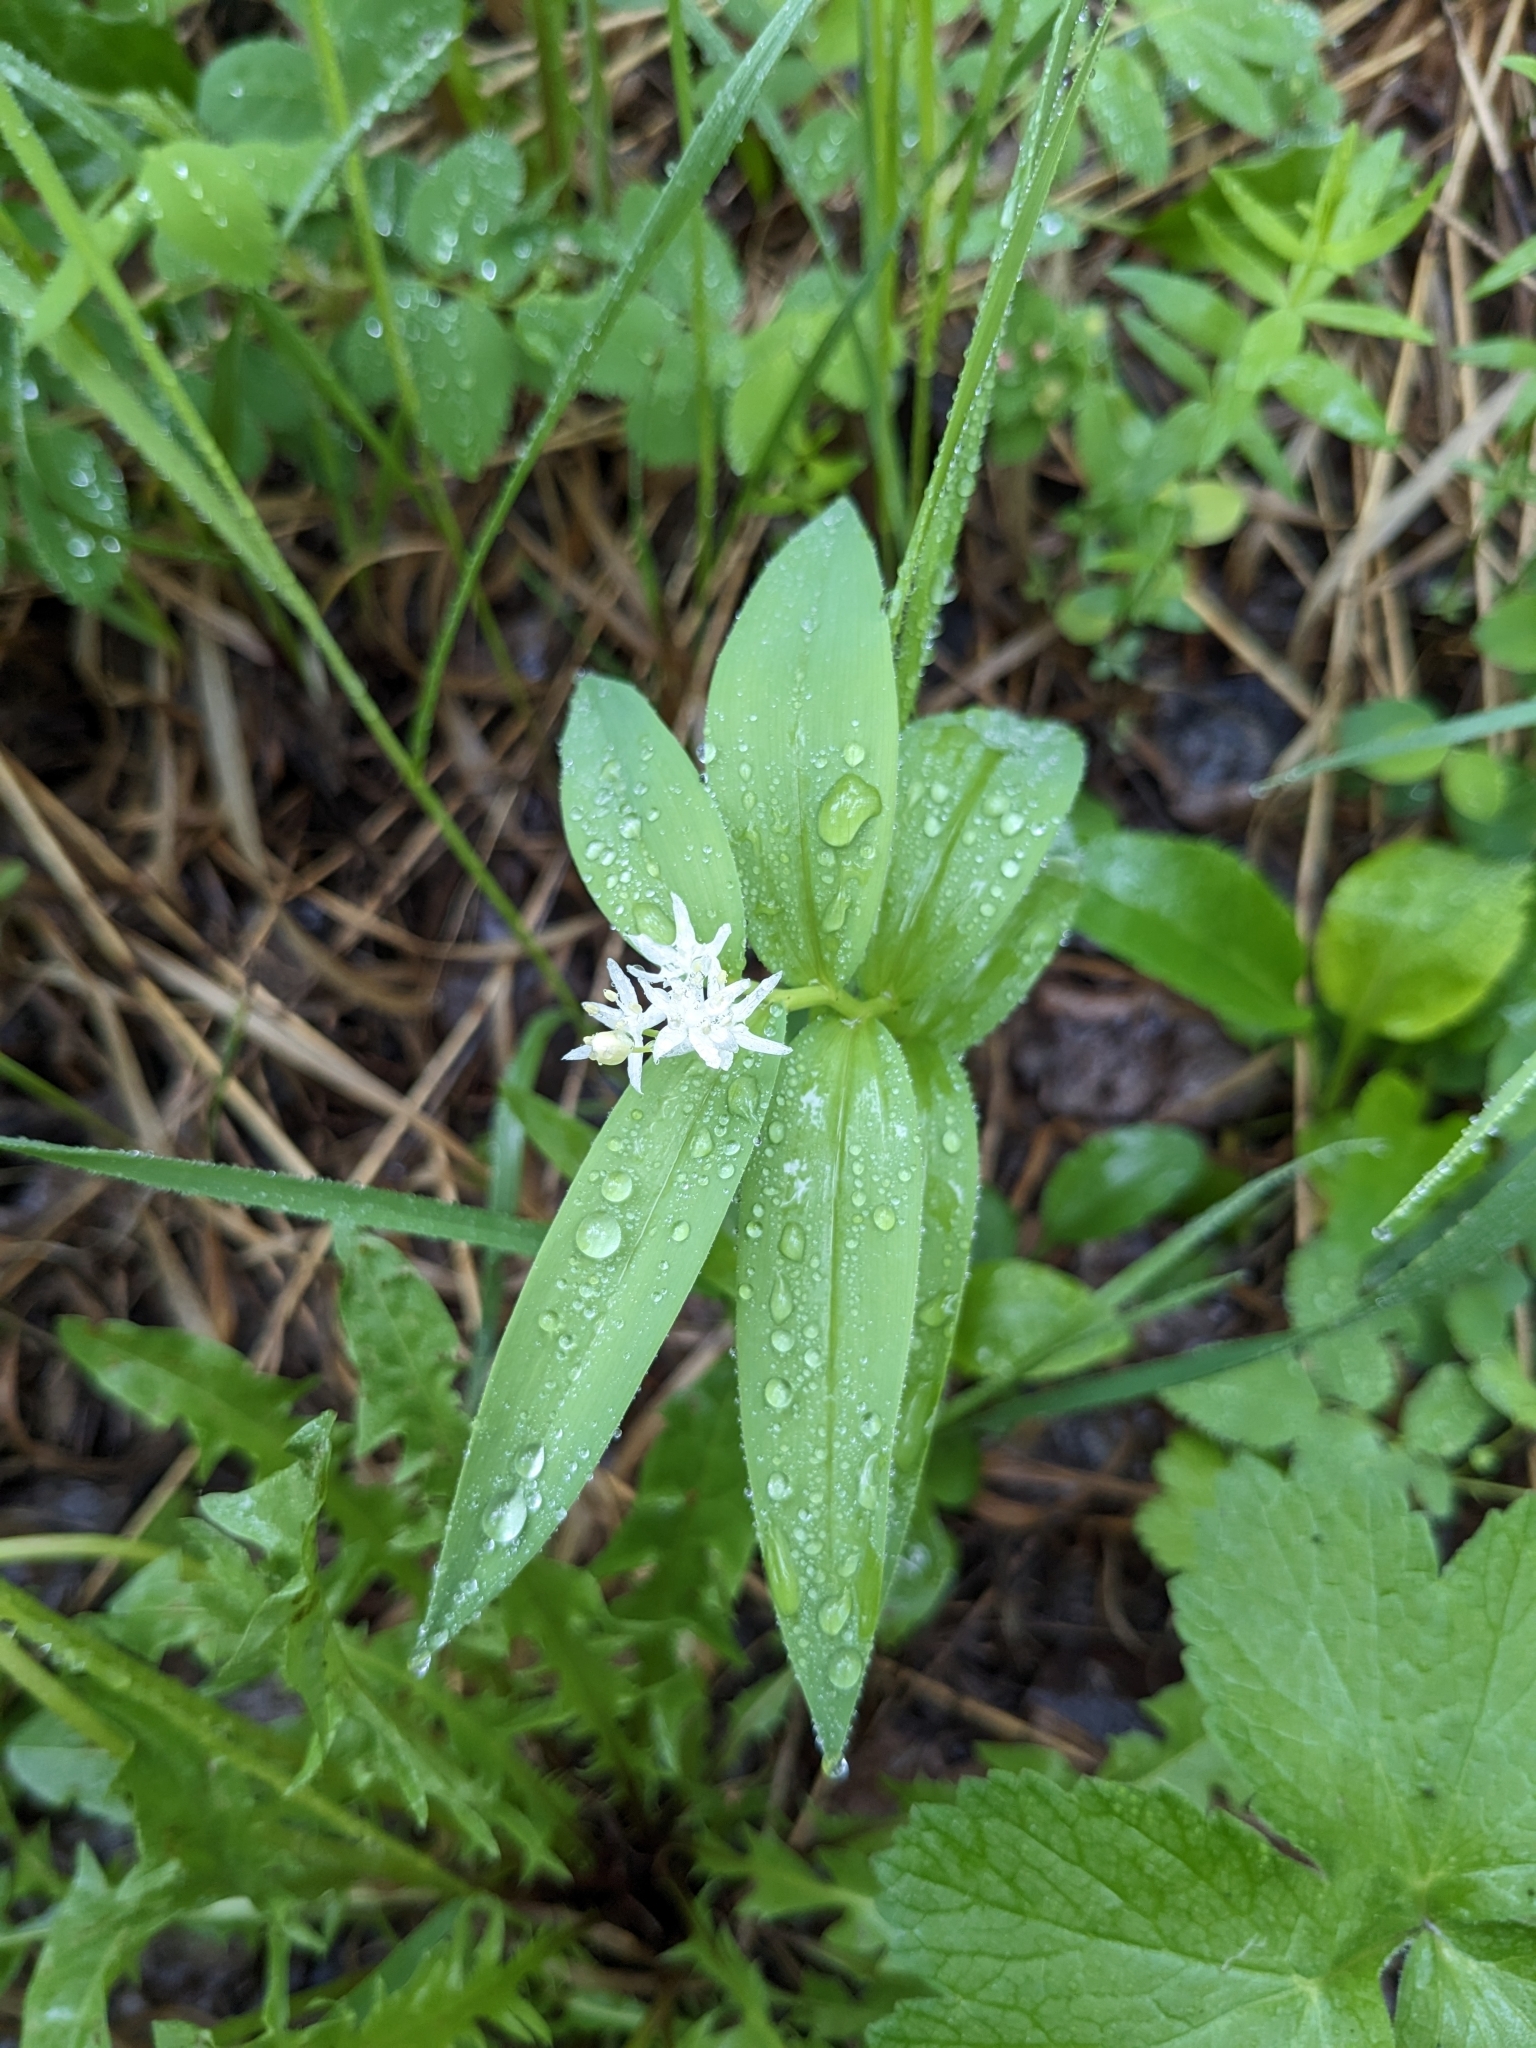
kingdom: Plantae
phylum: Tracheophyta
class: Liliopsida
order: Asparagales
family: Asparagaceae
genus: Maianthemum
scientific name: Maianthemum stellatum
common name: Little false solomon's seal
